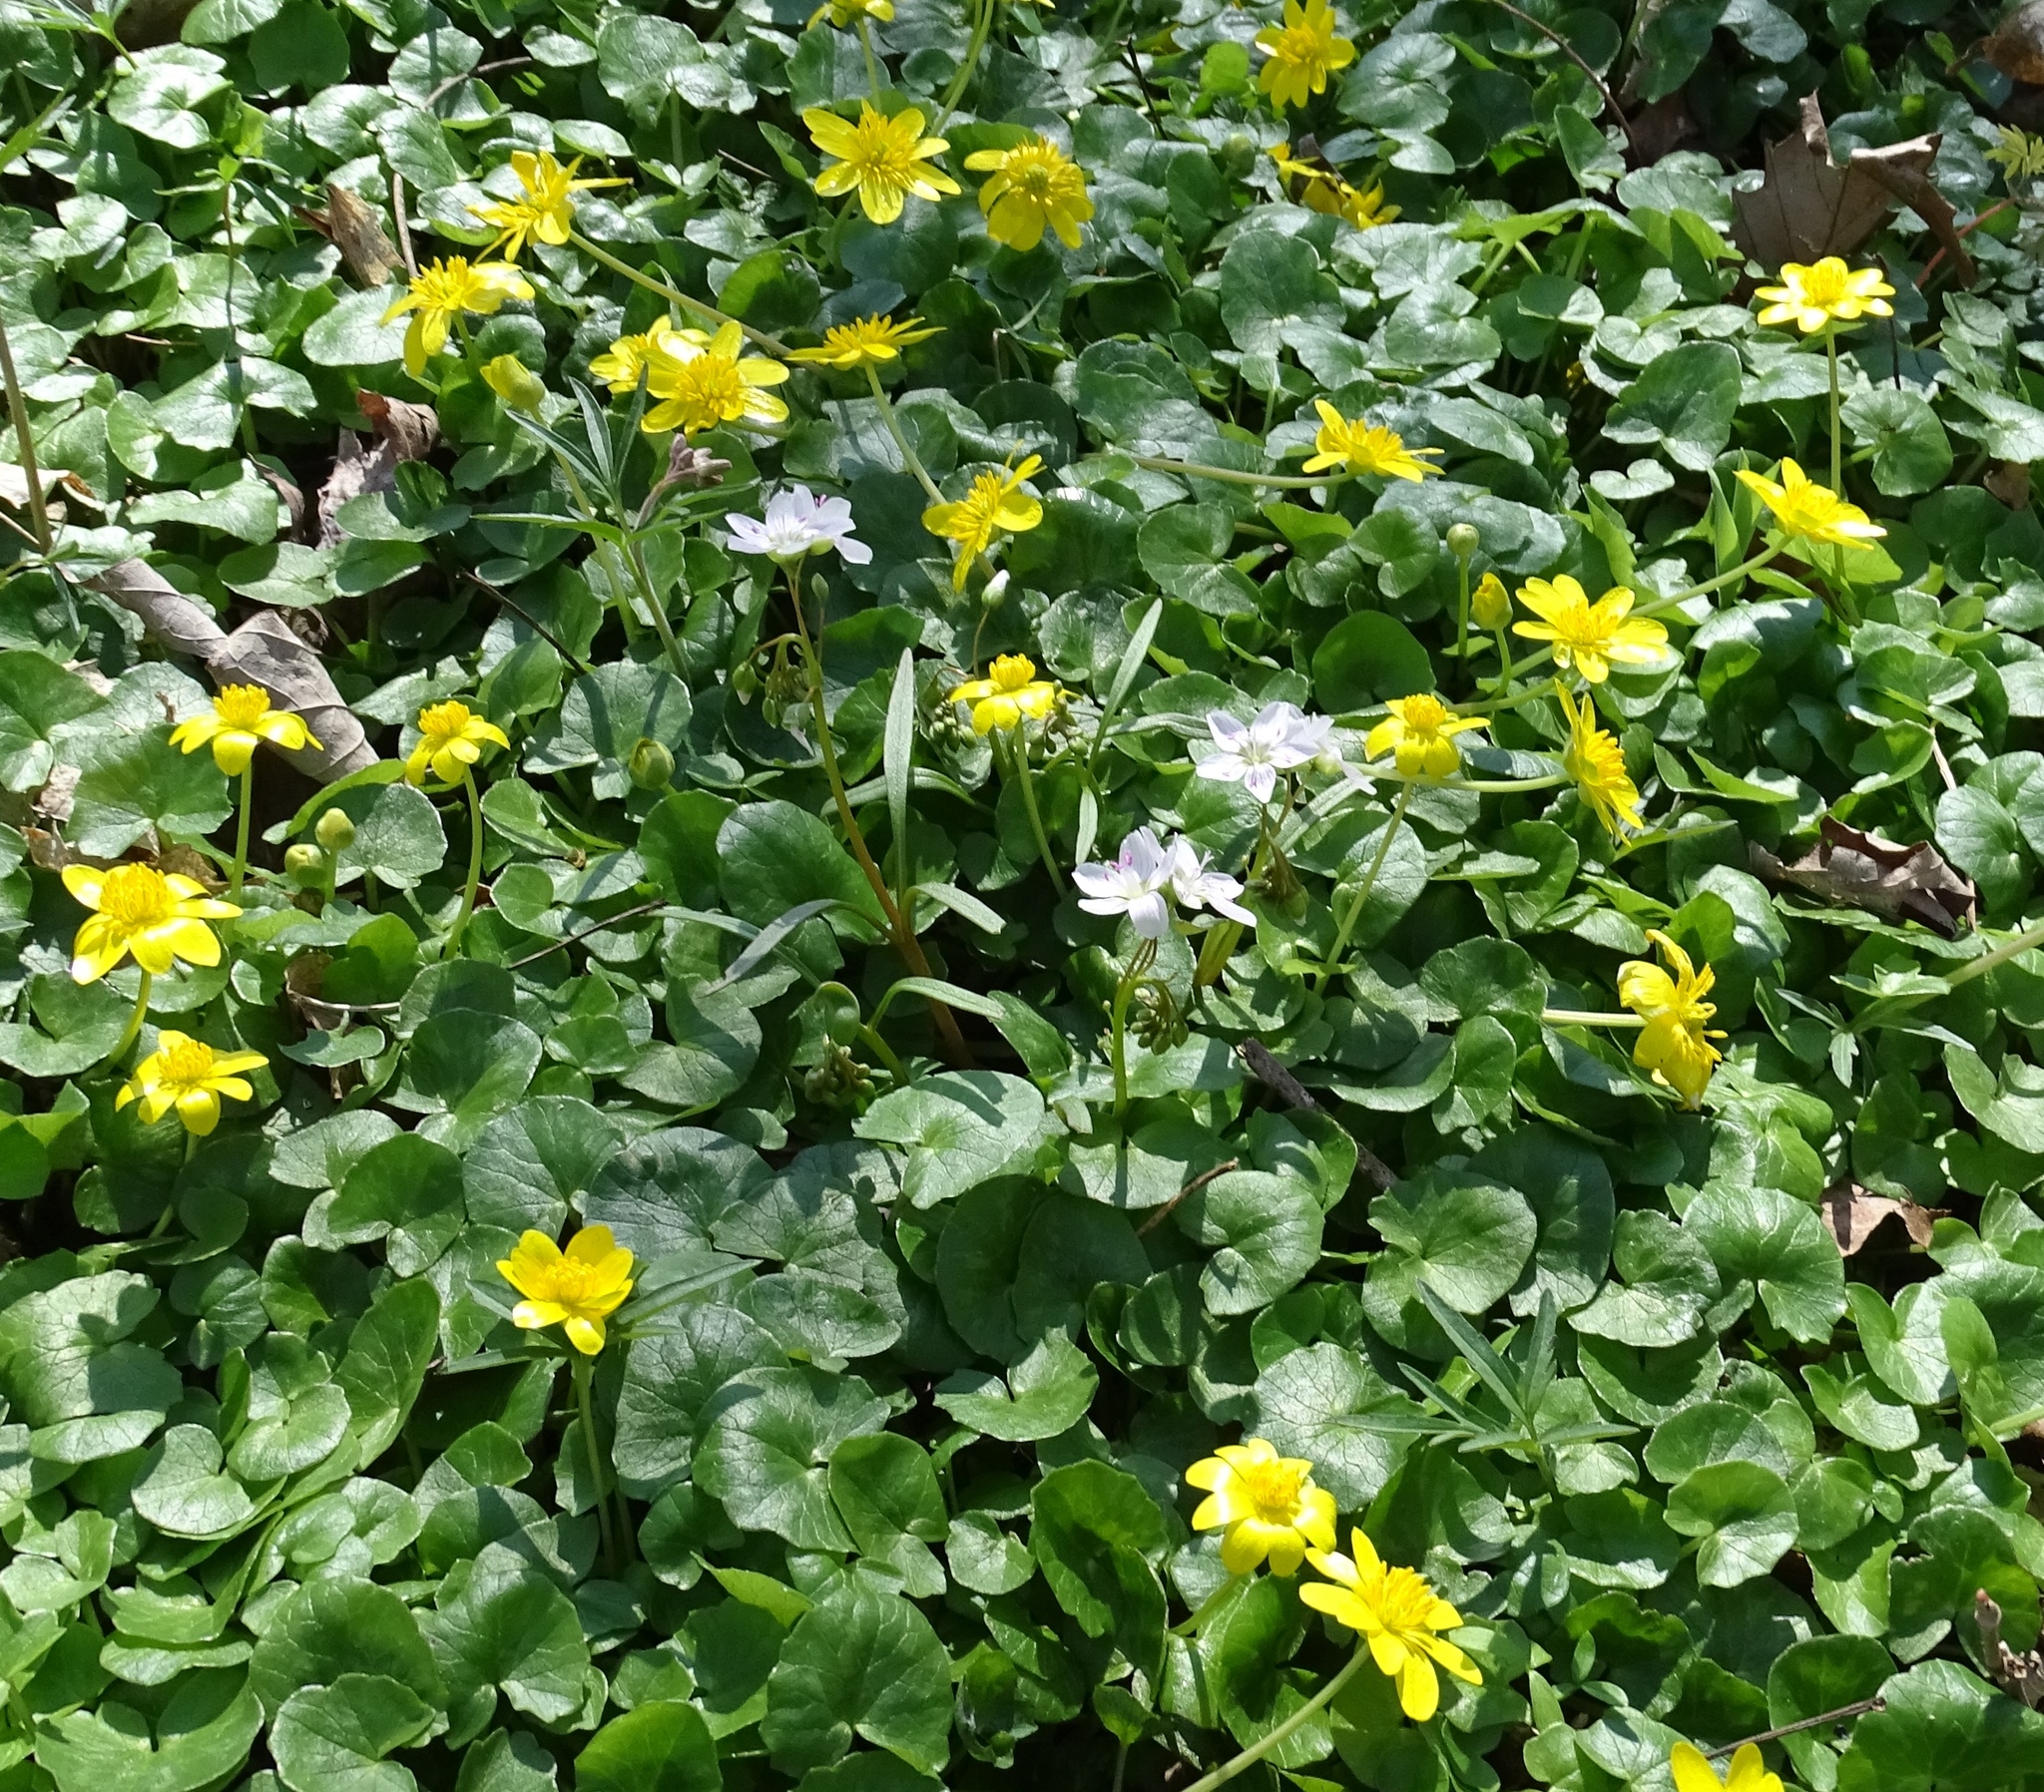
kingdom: Plantae
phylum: Tracheophyta
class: Magnoliopsida
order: Ranunculales
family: Ranunculaceae
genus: Ficaria
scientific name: Ficaria verna
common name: Lesser celandine
